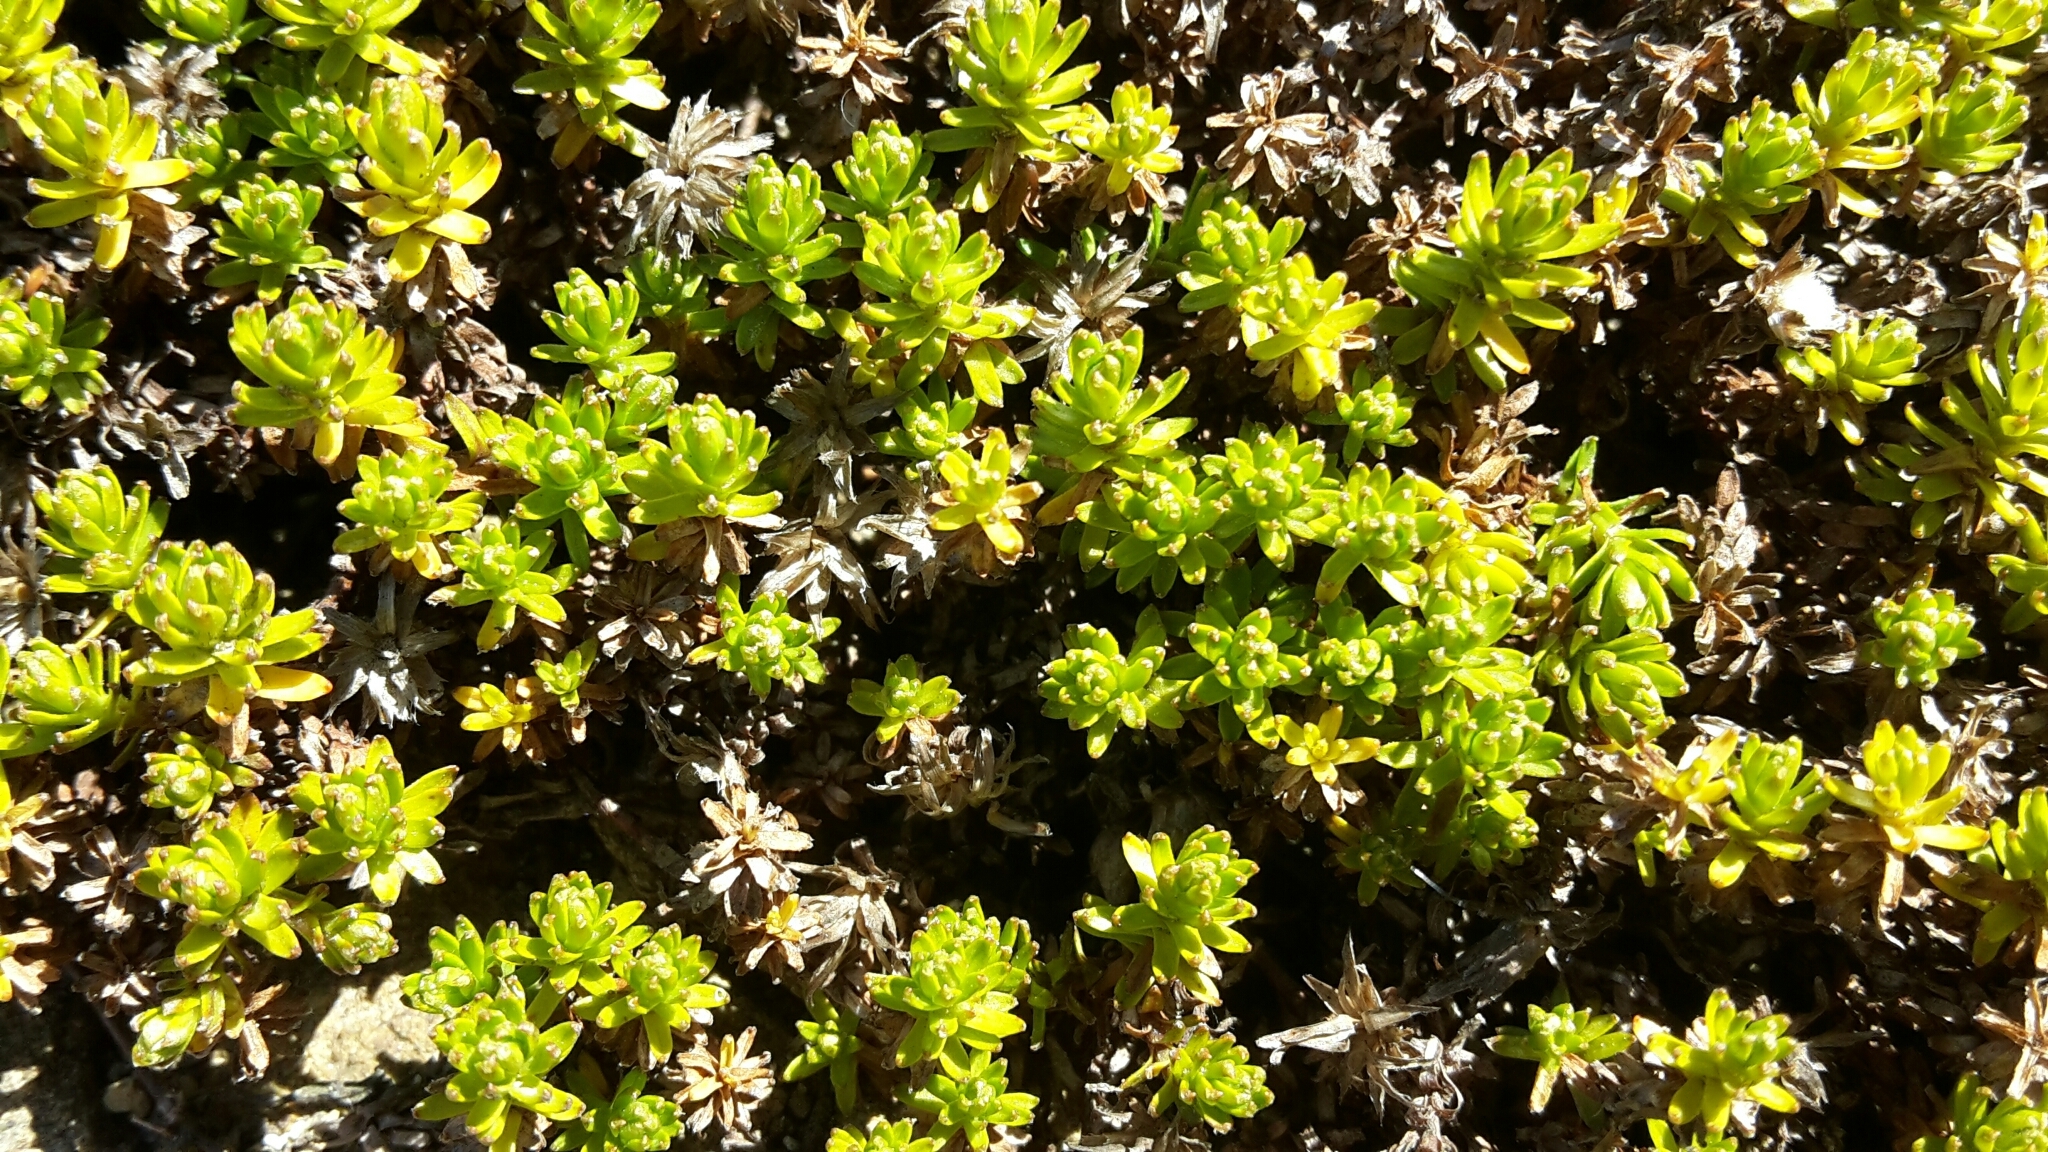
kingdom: Plantae
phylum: Tracheophyta
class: Magnoliopsida
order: Asterales
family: Asteraceae
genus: Raoulia
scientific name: Raoulia glabra
